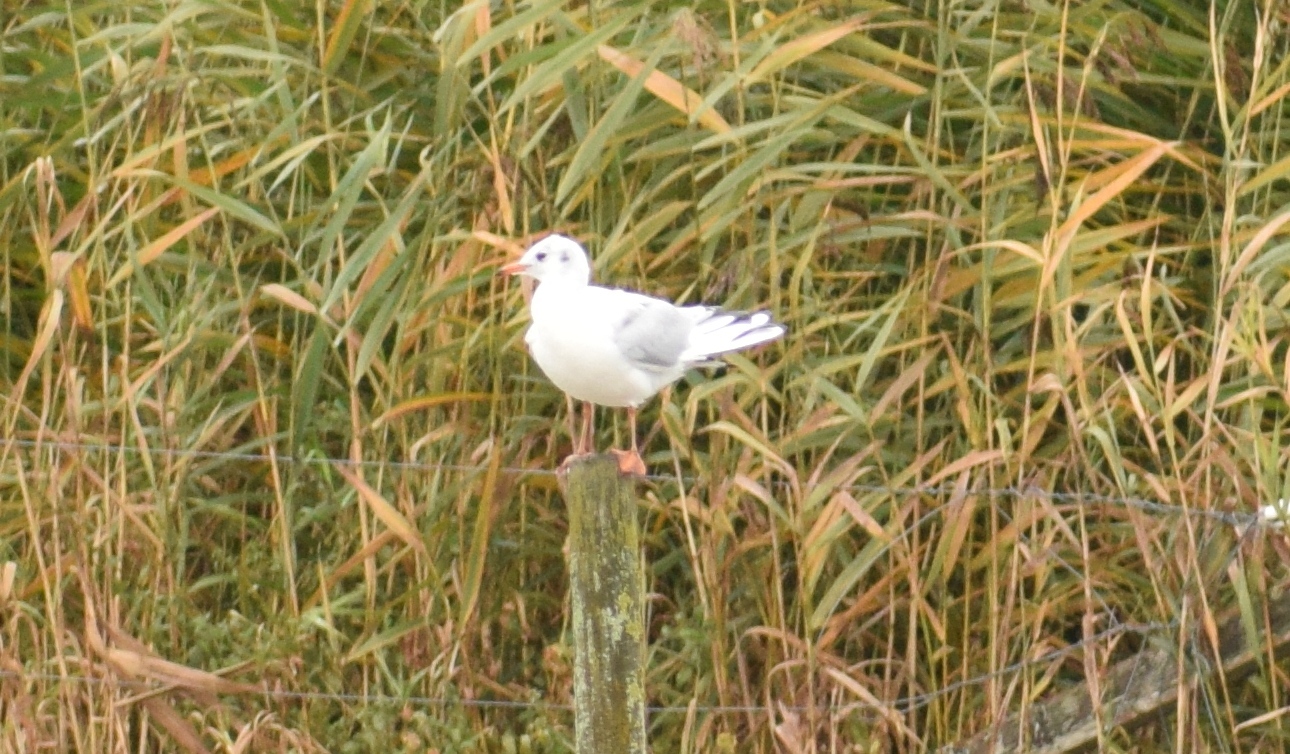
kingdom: Animalia
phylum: Chordata
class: Aves
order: Charadriiformes
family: Laridae
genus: Chroicocephalus
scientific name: Chroicocephalus ridibundus
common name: Black-headed gull
